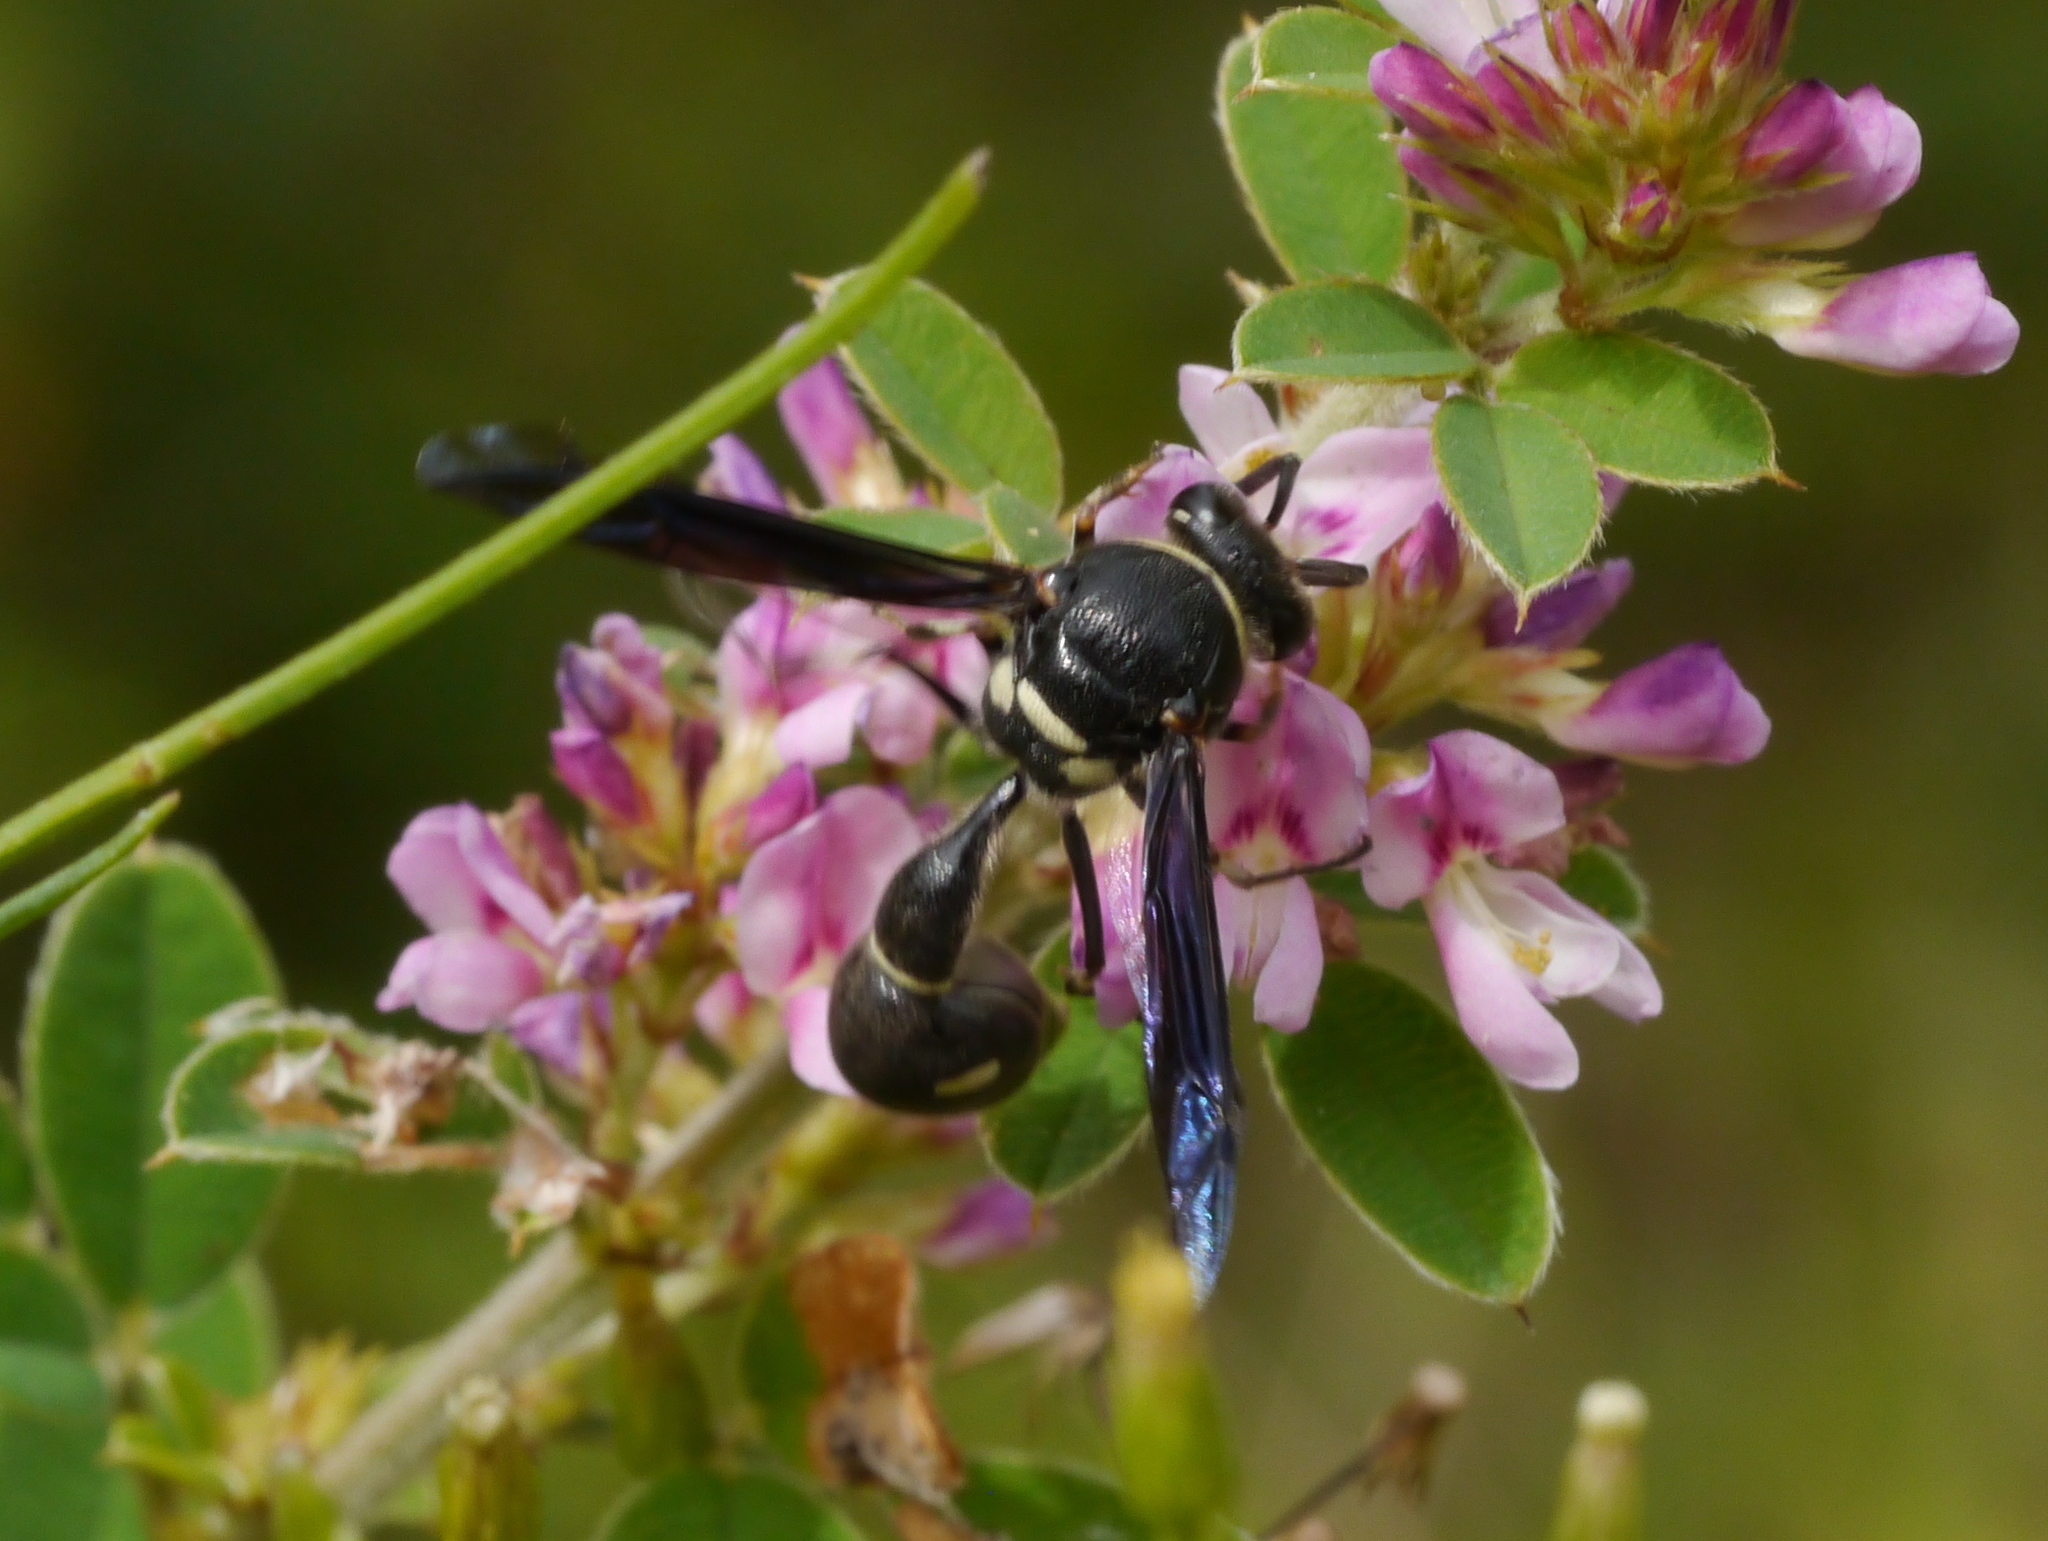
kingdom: Animalia
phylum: Arthropoda
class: Insecta
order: Hymenoptera
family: Vespidae
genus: Eumenes
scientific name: Eumenes fraternus
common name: Fraternal potter wasp
